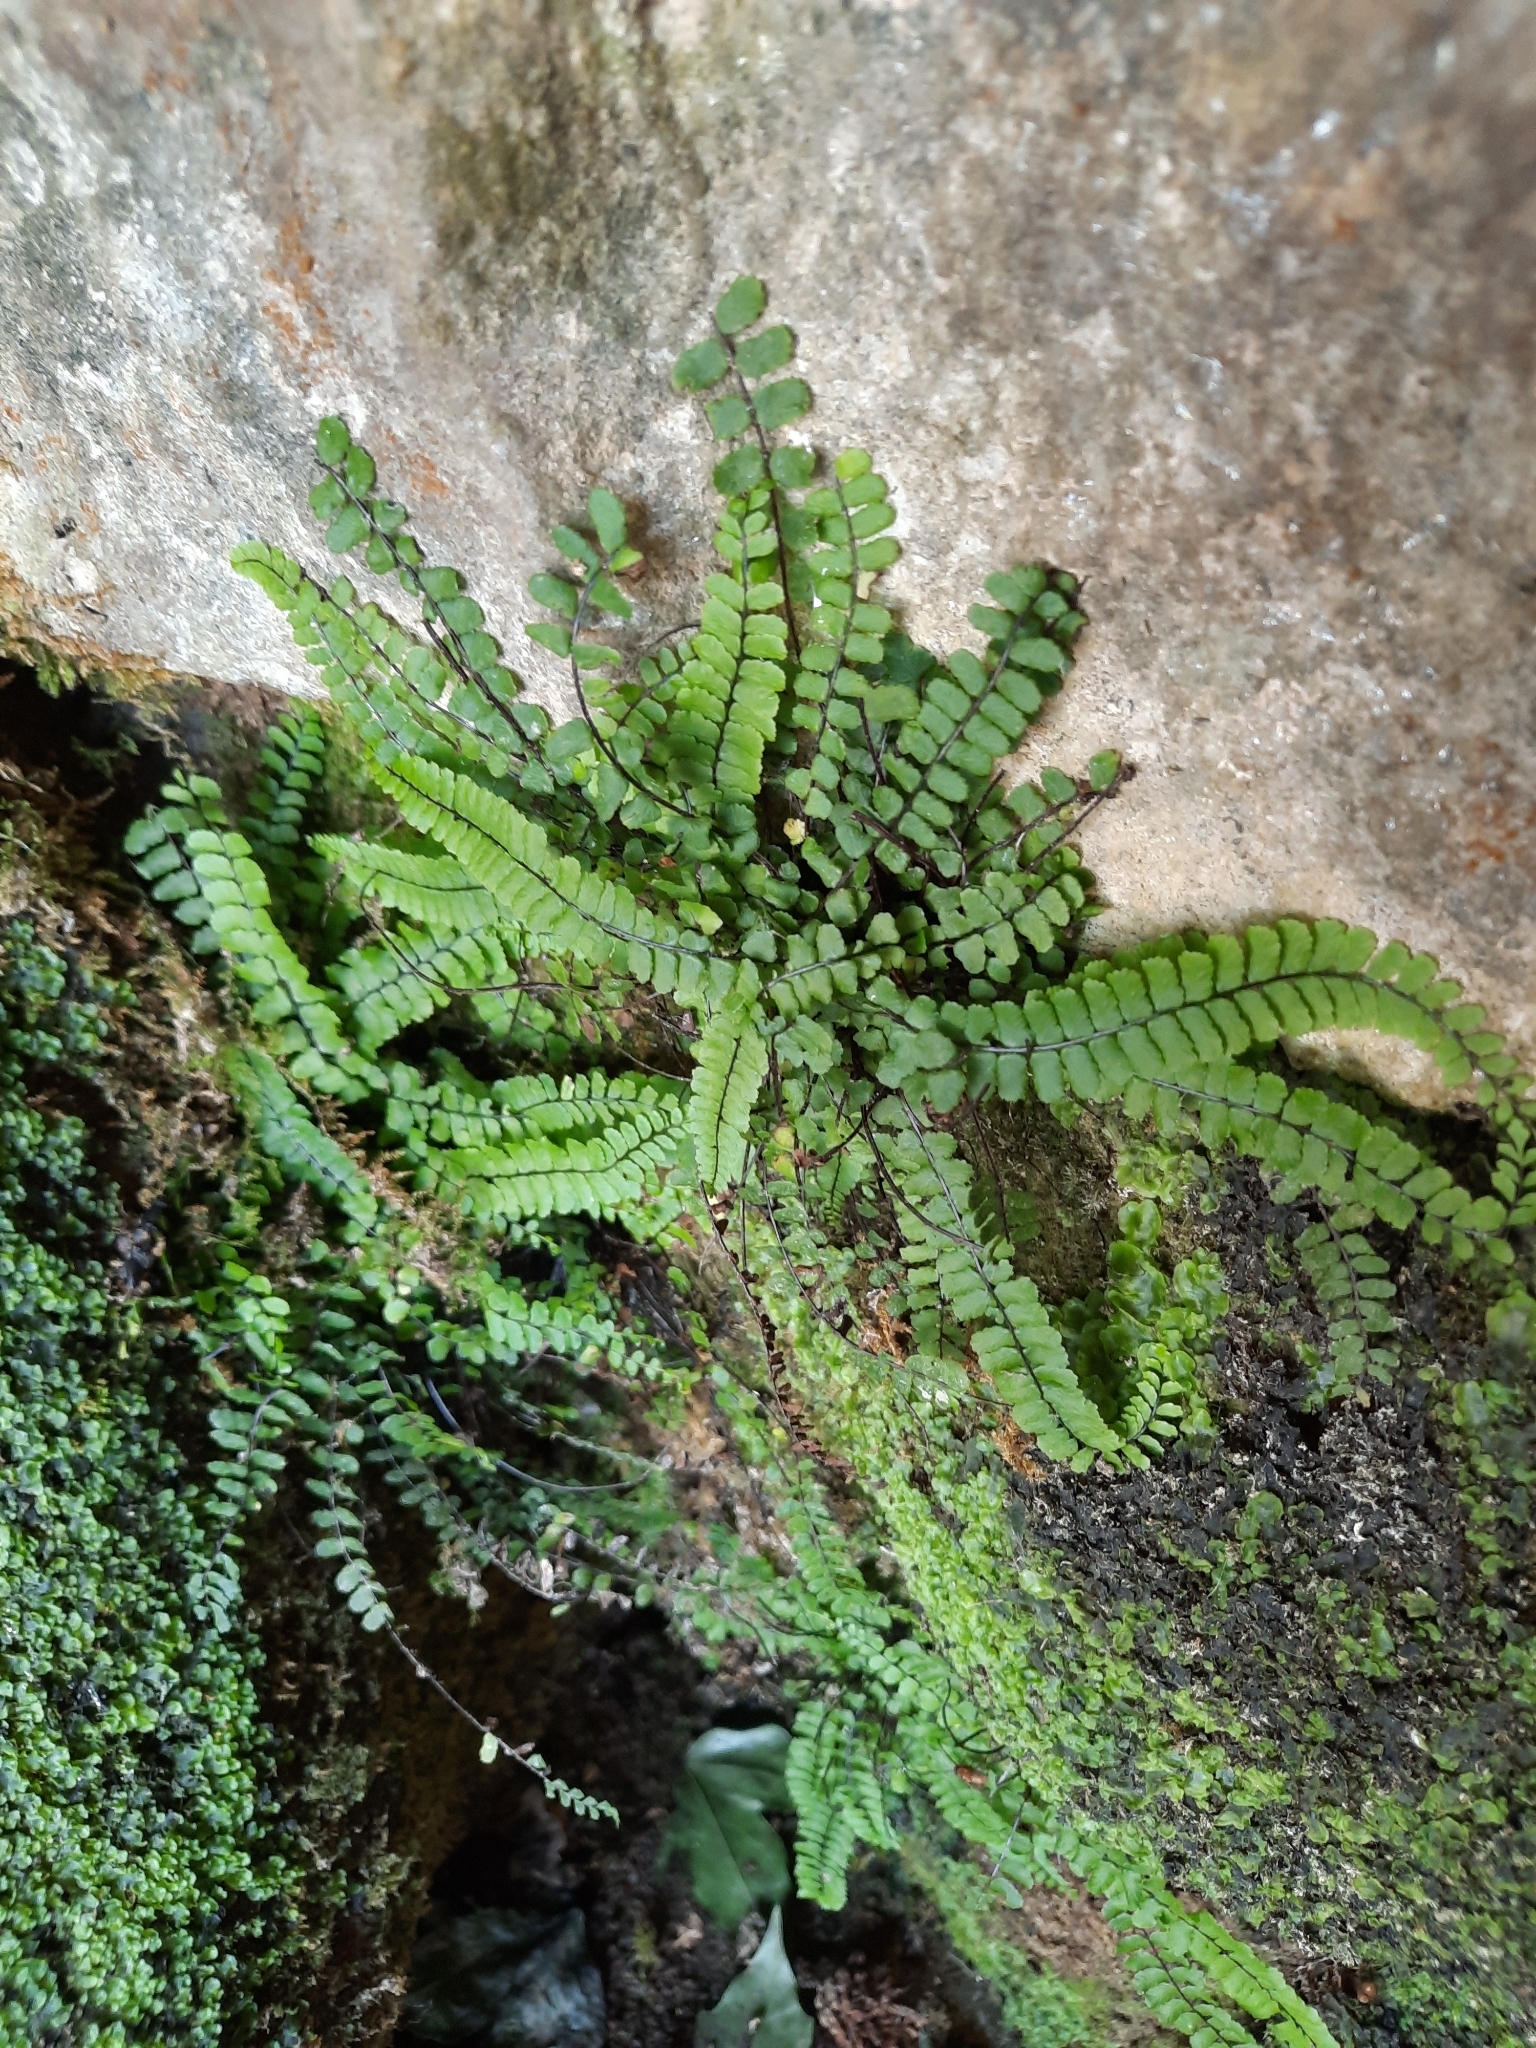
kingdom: Plantae
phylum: Tracheophyta
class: Polypodiopsida
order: Polypodiales
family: Aspleniaceae
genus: Asplenium
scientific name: Asplenium trichomanes
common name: Maidenhair spleenwort
